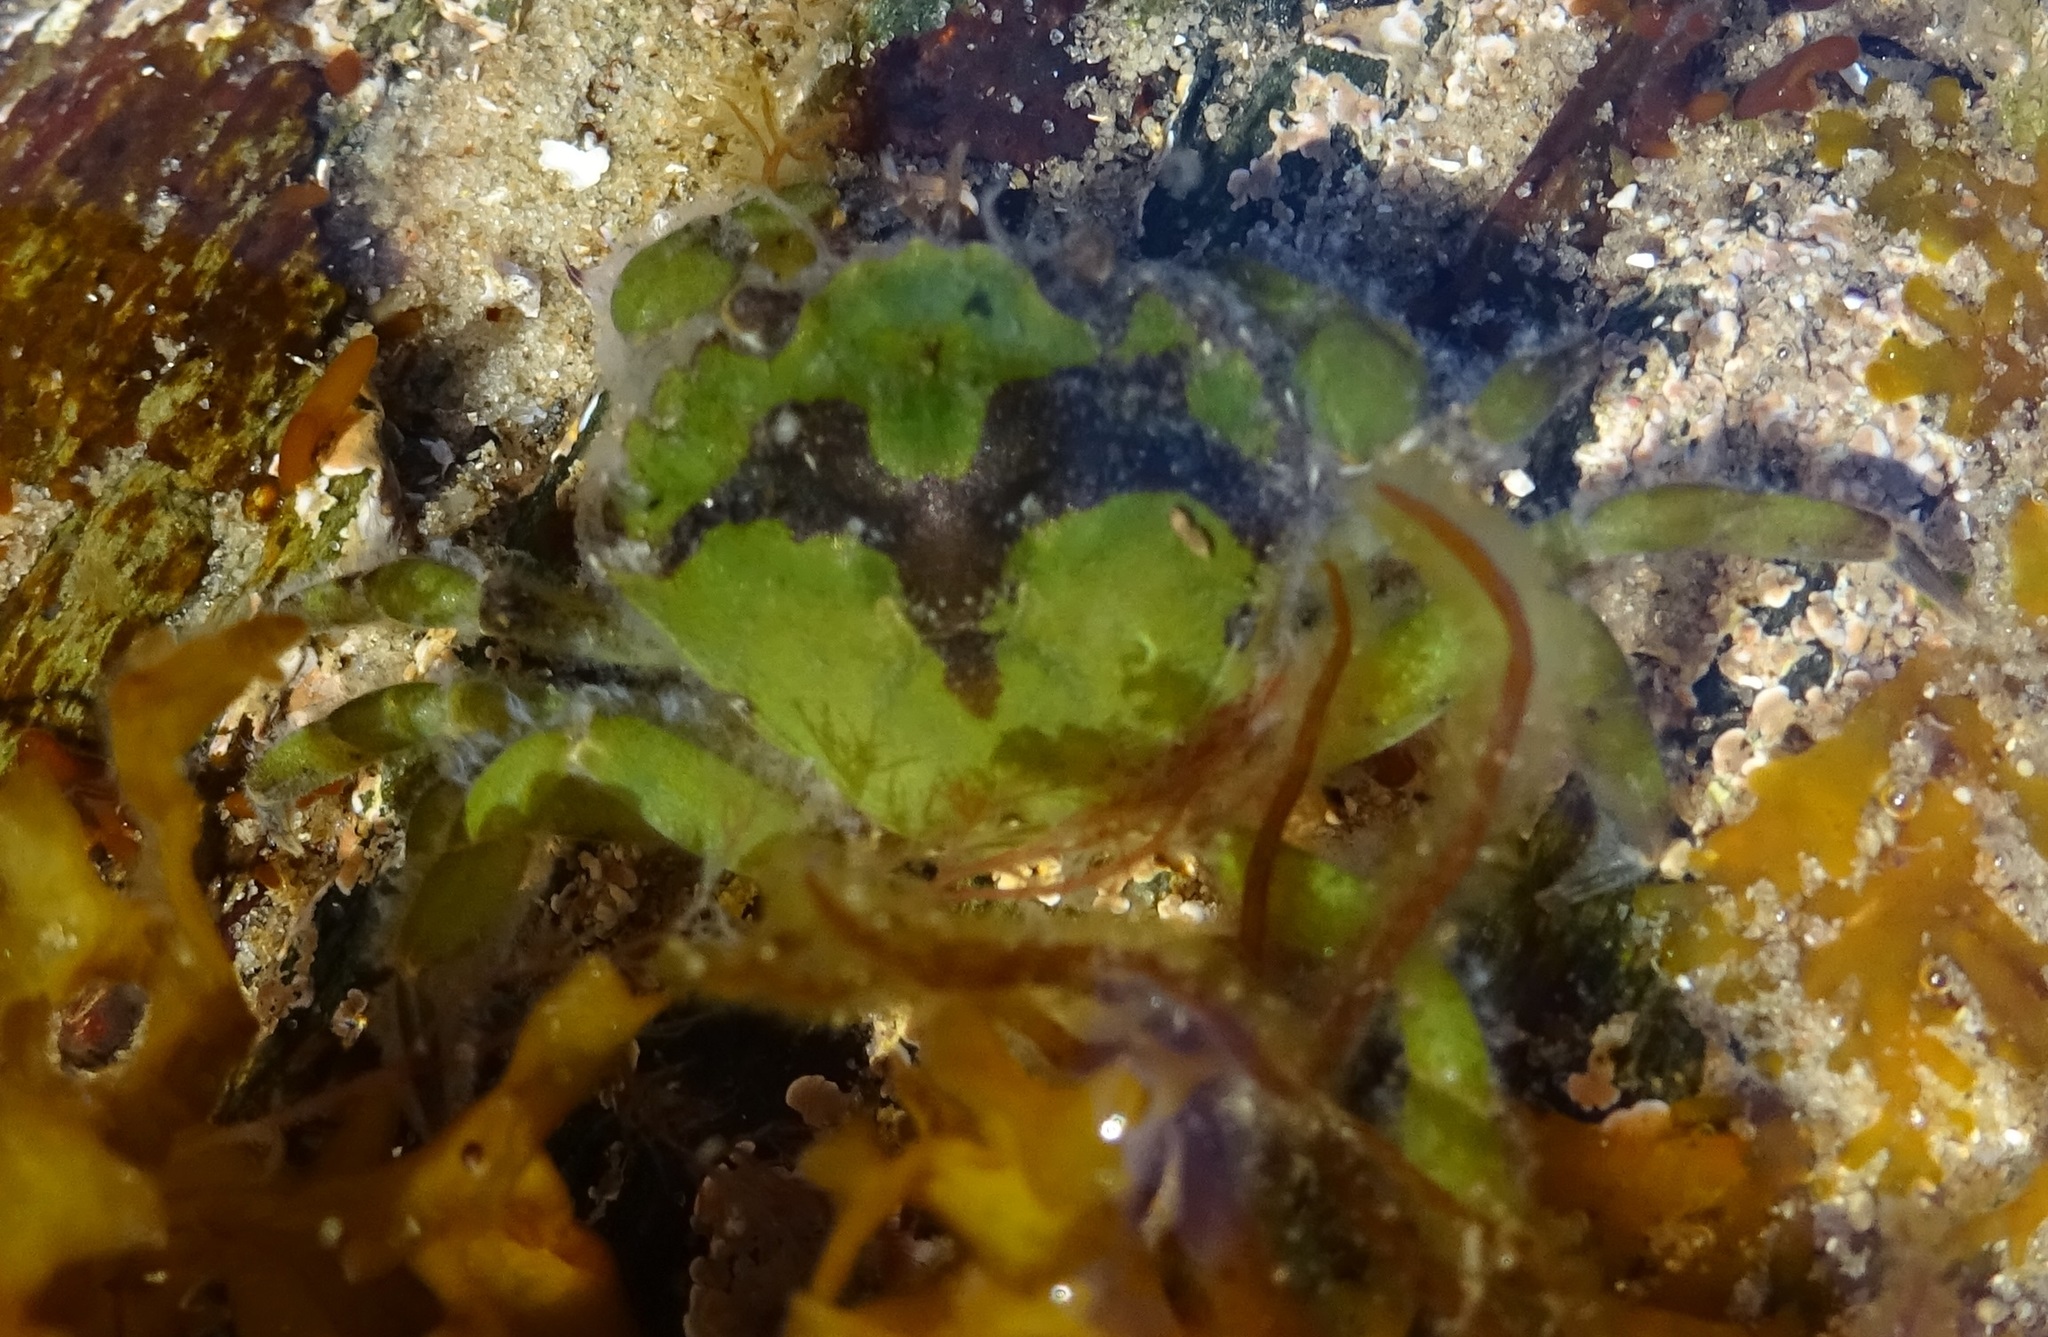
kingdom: Animalia
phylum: Arthropoda
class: Malacostraca
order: Decapoda
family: Carcinidae
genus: Carcinus
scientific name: Carcinus maenas
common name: European green crab
